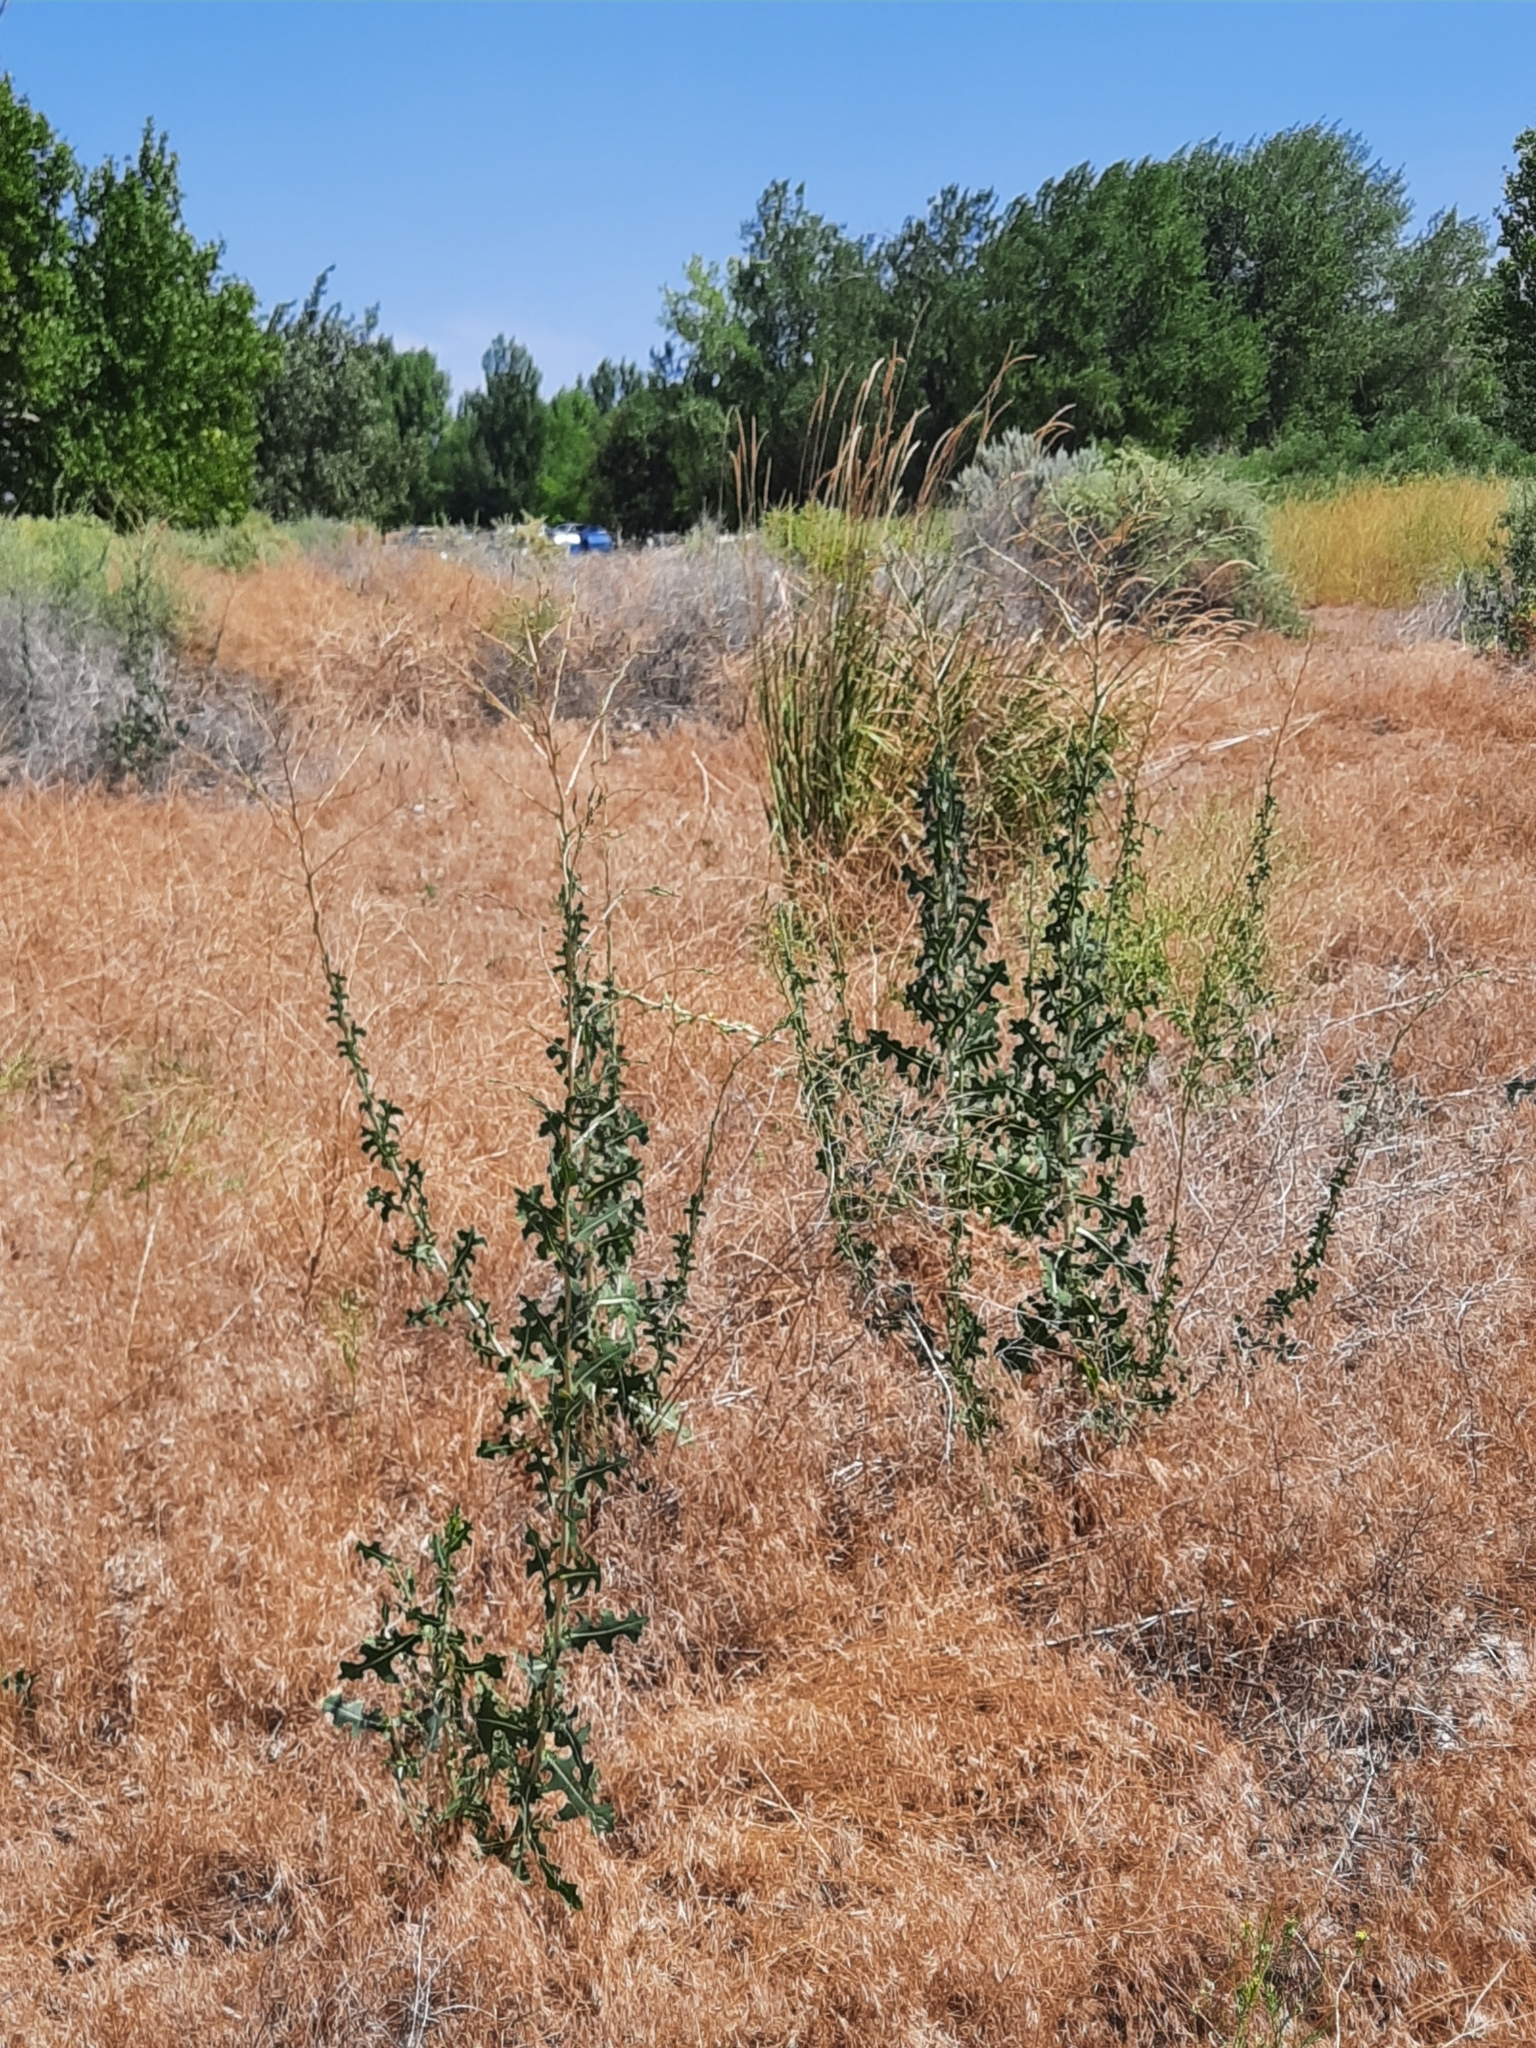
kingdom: Plantae
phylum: Tracheophyta
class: Magnoliopsida
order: Asterales
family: Asteraceae
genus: Lactuca
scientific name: Lactuca serriola
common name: Prickly lettuce
